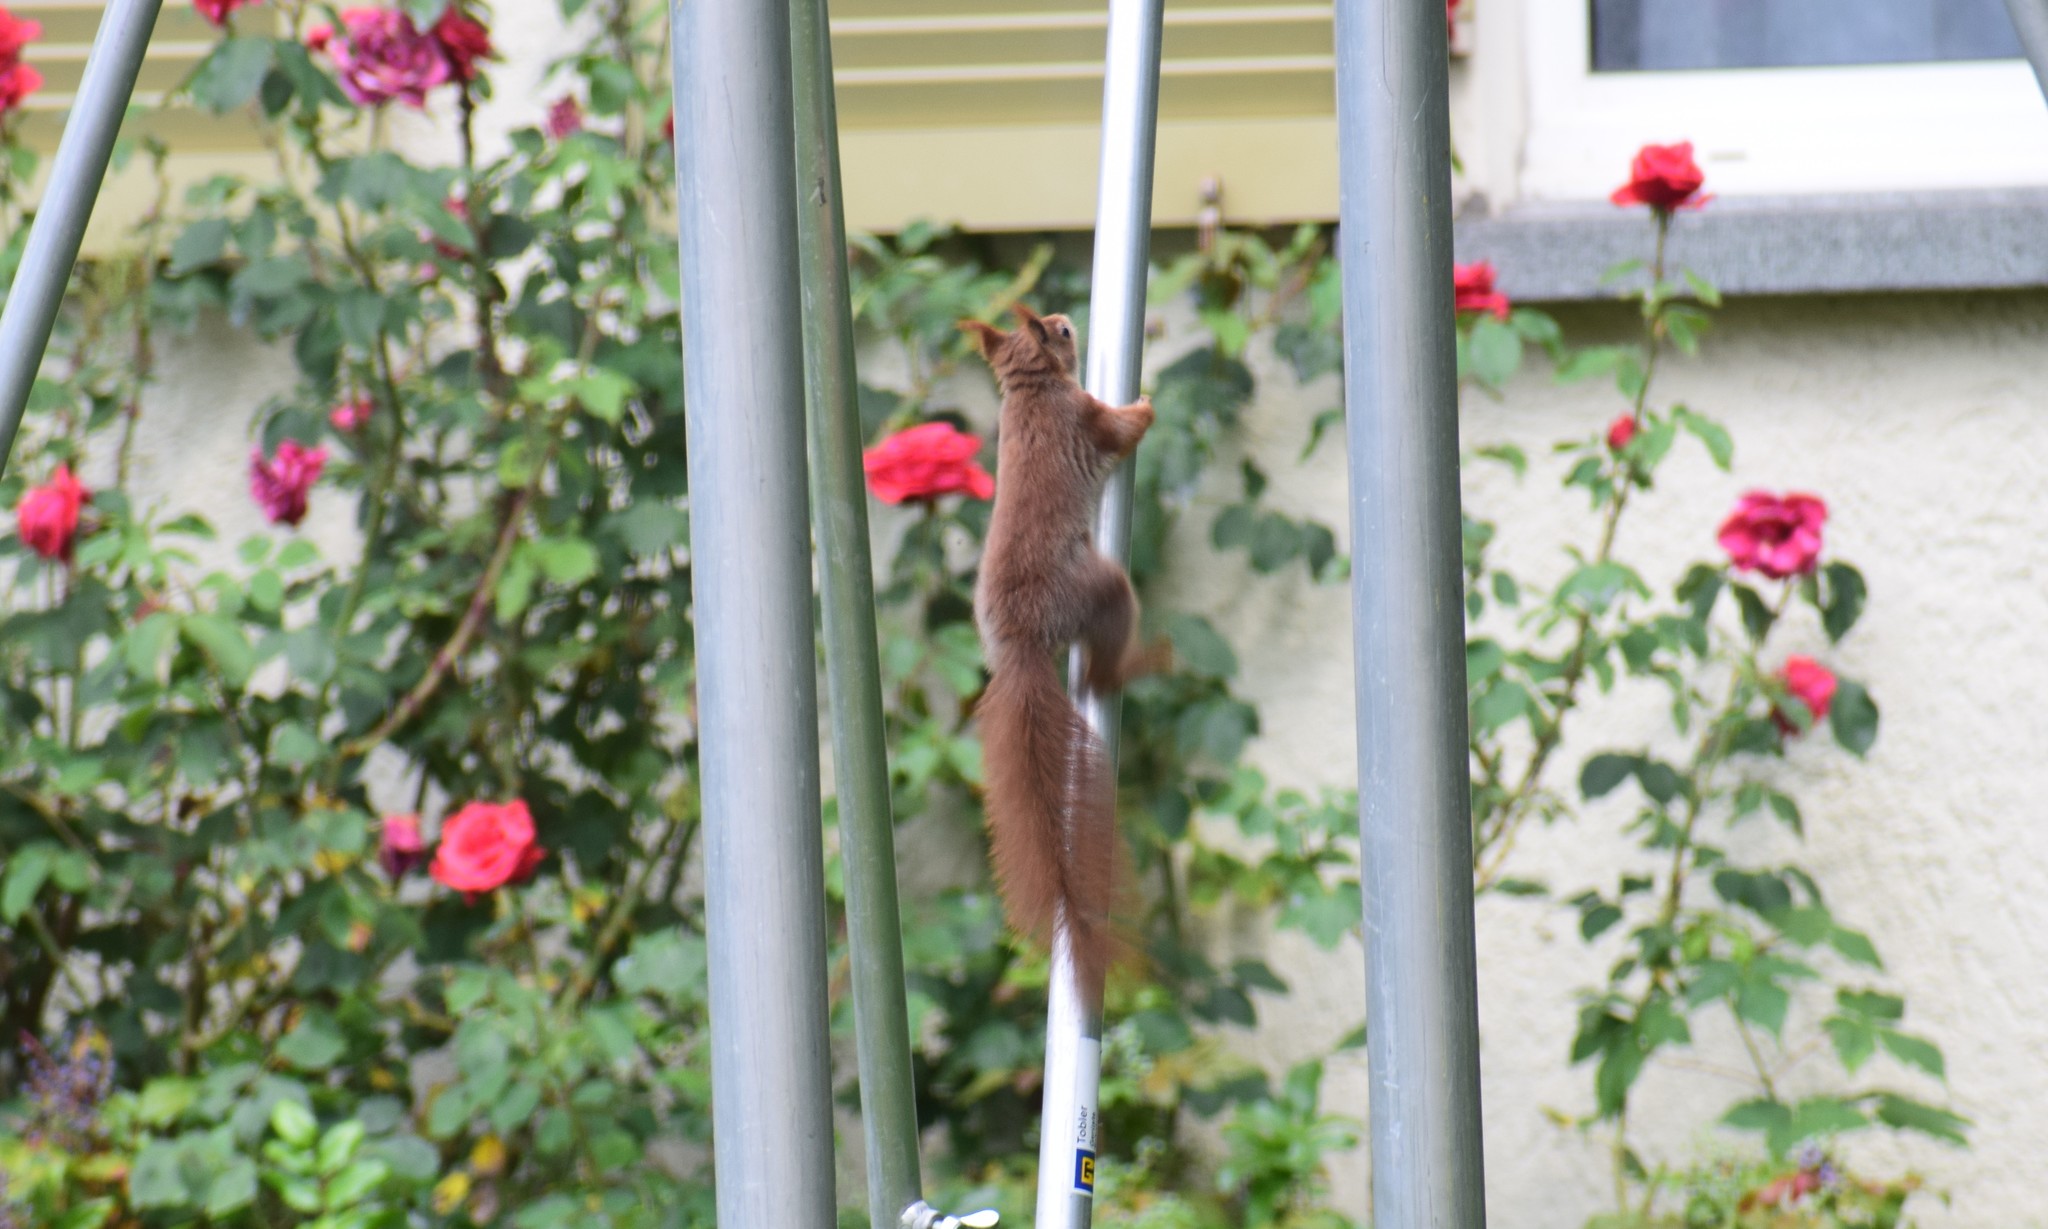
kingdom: Animalia
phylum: Chordata
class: Mammalia
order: Rodentia
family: Sciuridae
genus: Sciurus
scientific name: Sciurus vulgaris
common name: Eurasian red squirrel
